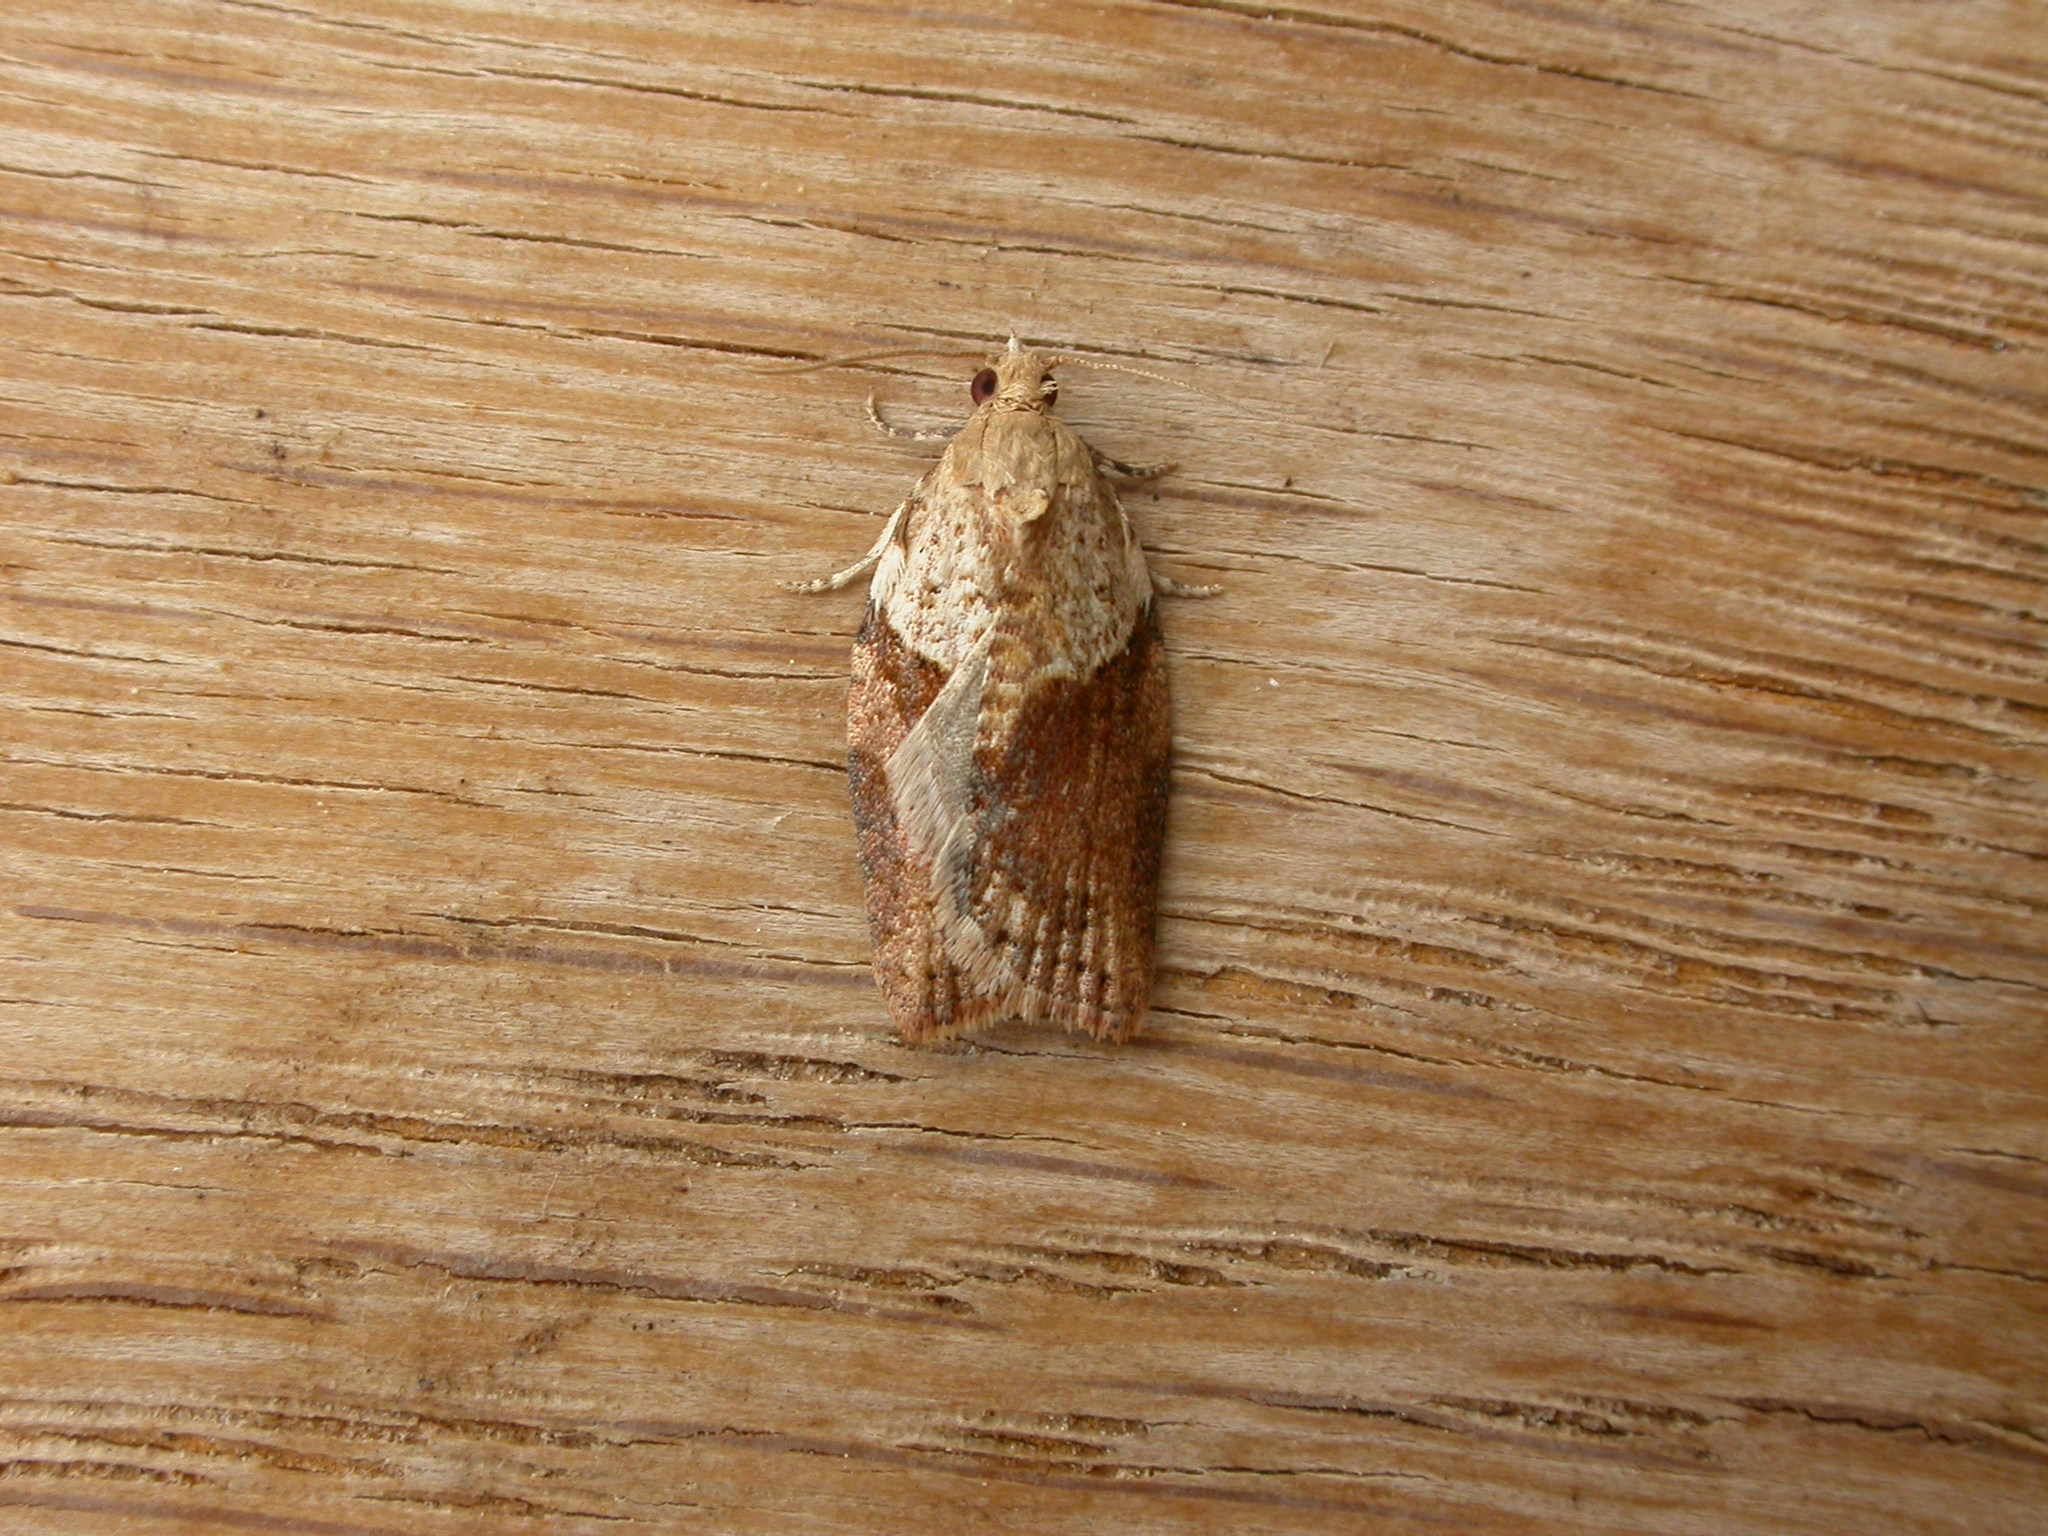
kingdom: Animalia
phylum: Arthropoda
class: Insecta
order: Lepidoptera
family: Tortricidae
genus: Epiphyas
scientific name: Epiphyas postvittana
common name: Light brown apple moth
